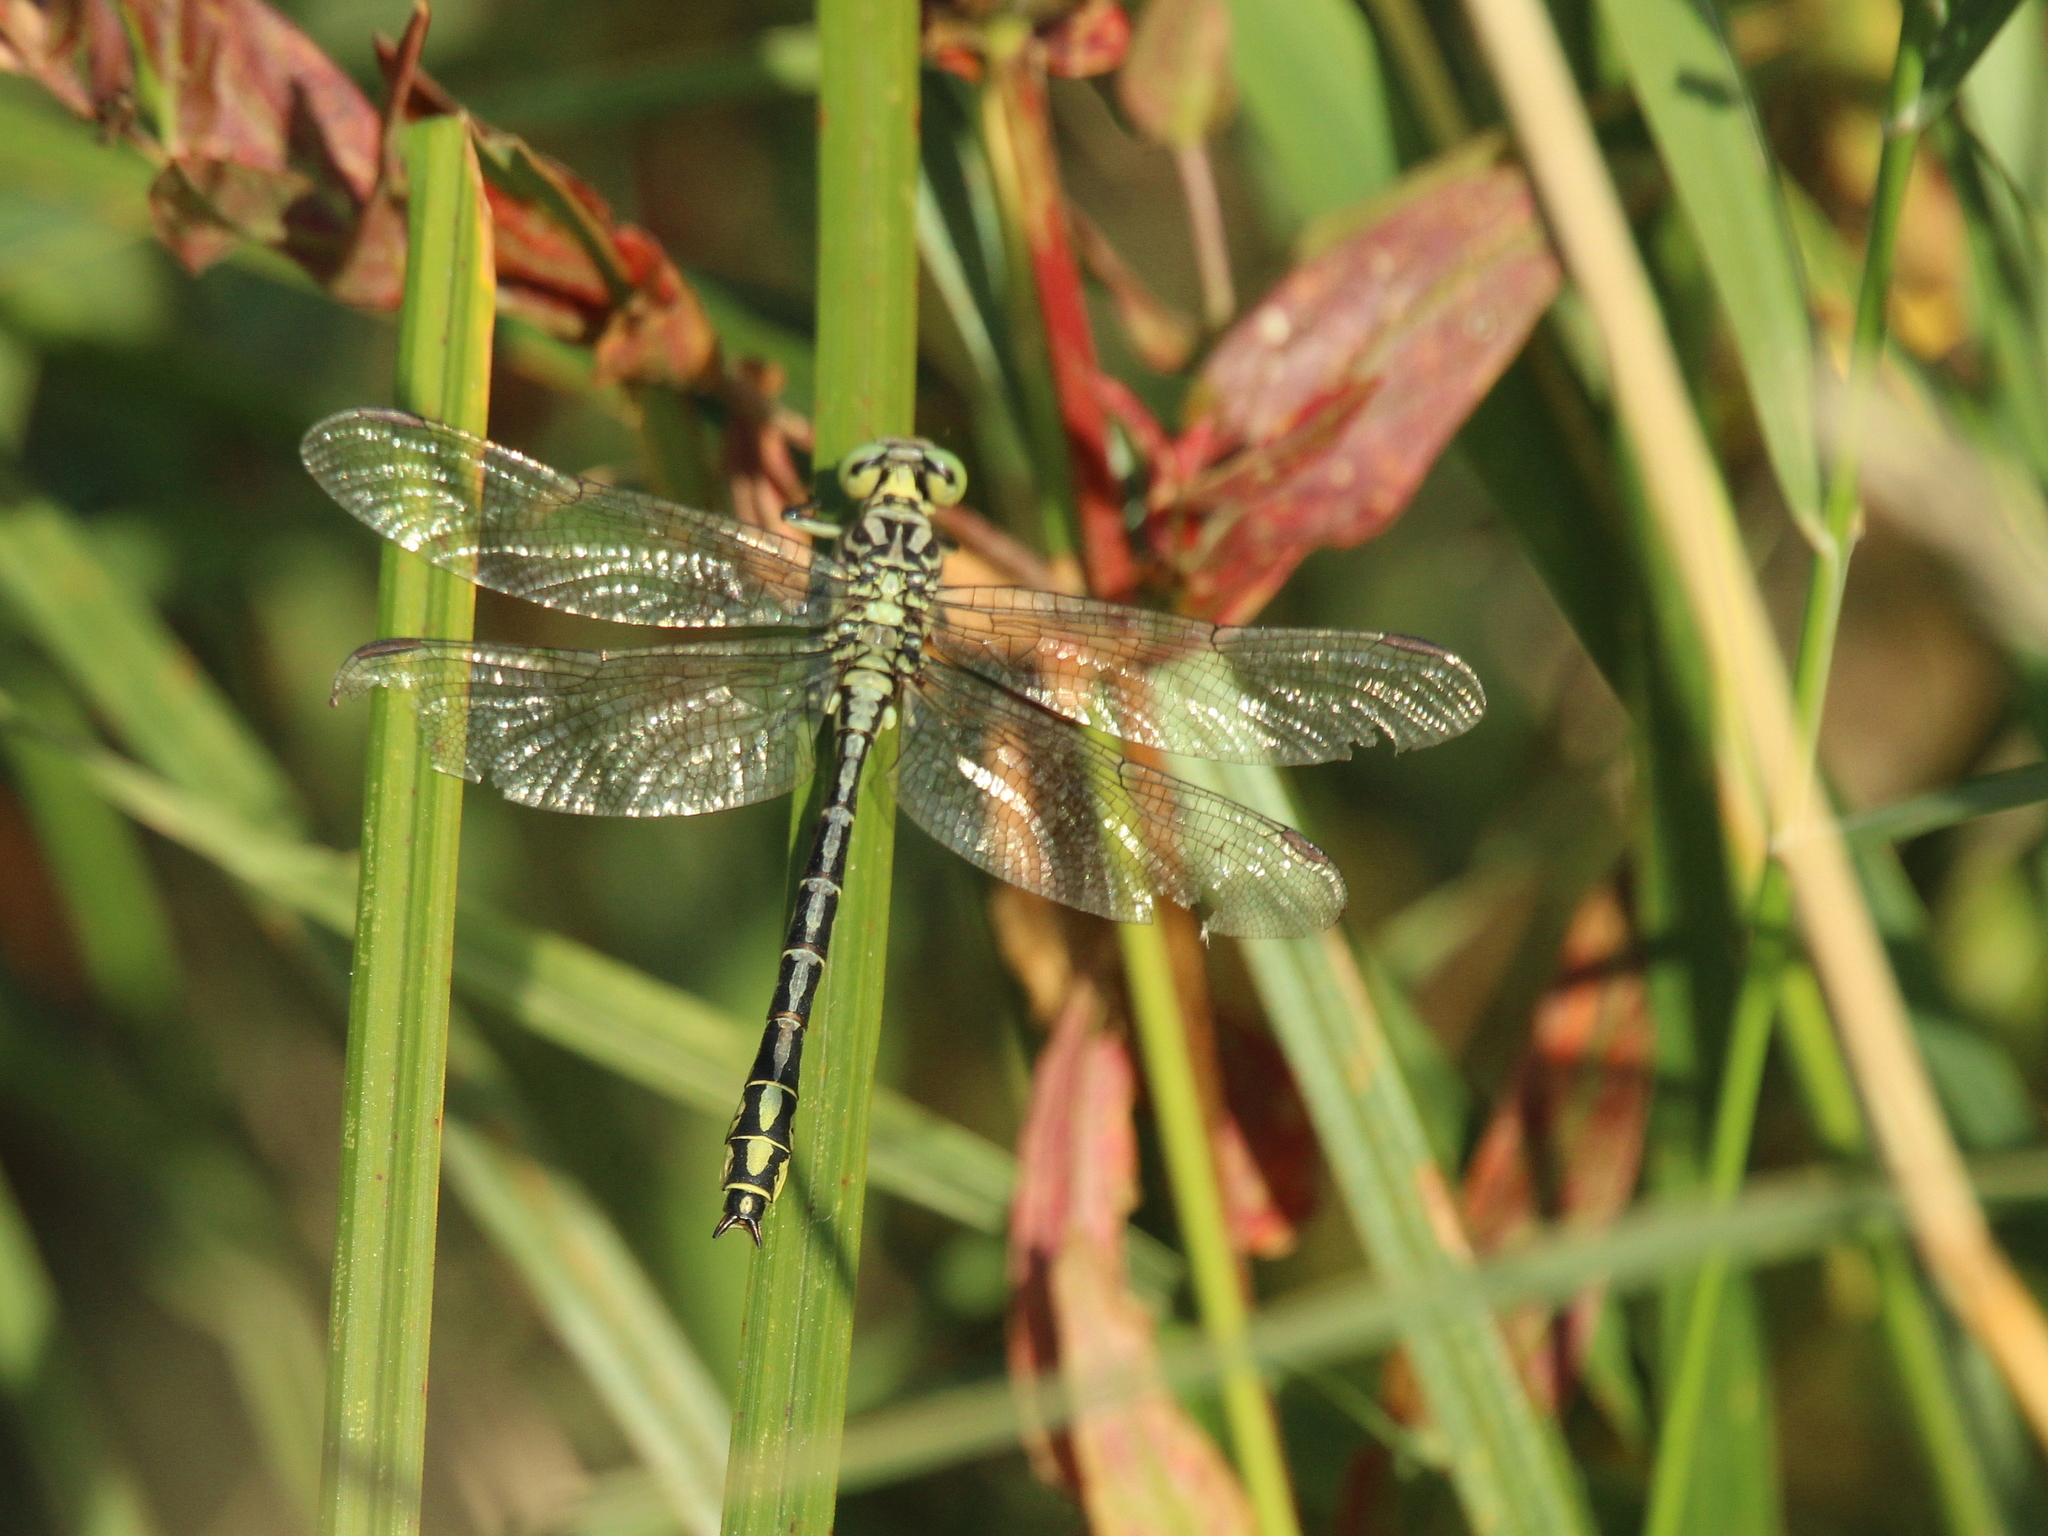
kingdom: Animalia
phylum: Arthropoda
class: Insecta
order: Odonata
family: Gomphidae
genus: Stylurus
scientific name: Stylurus flavipes
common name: River clubtail
